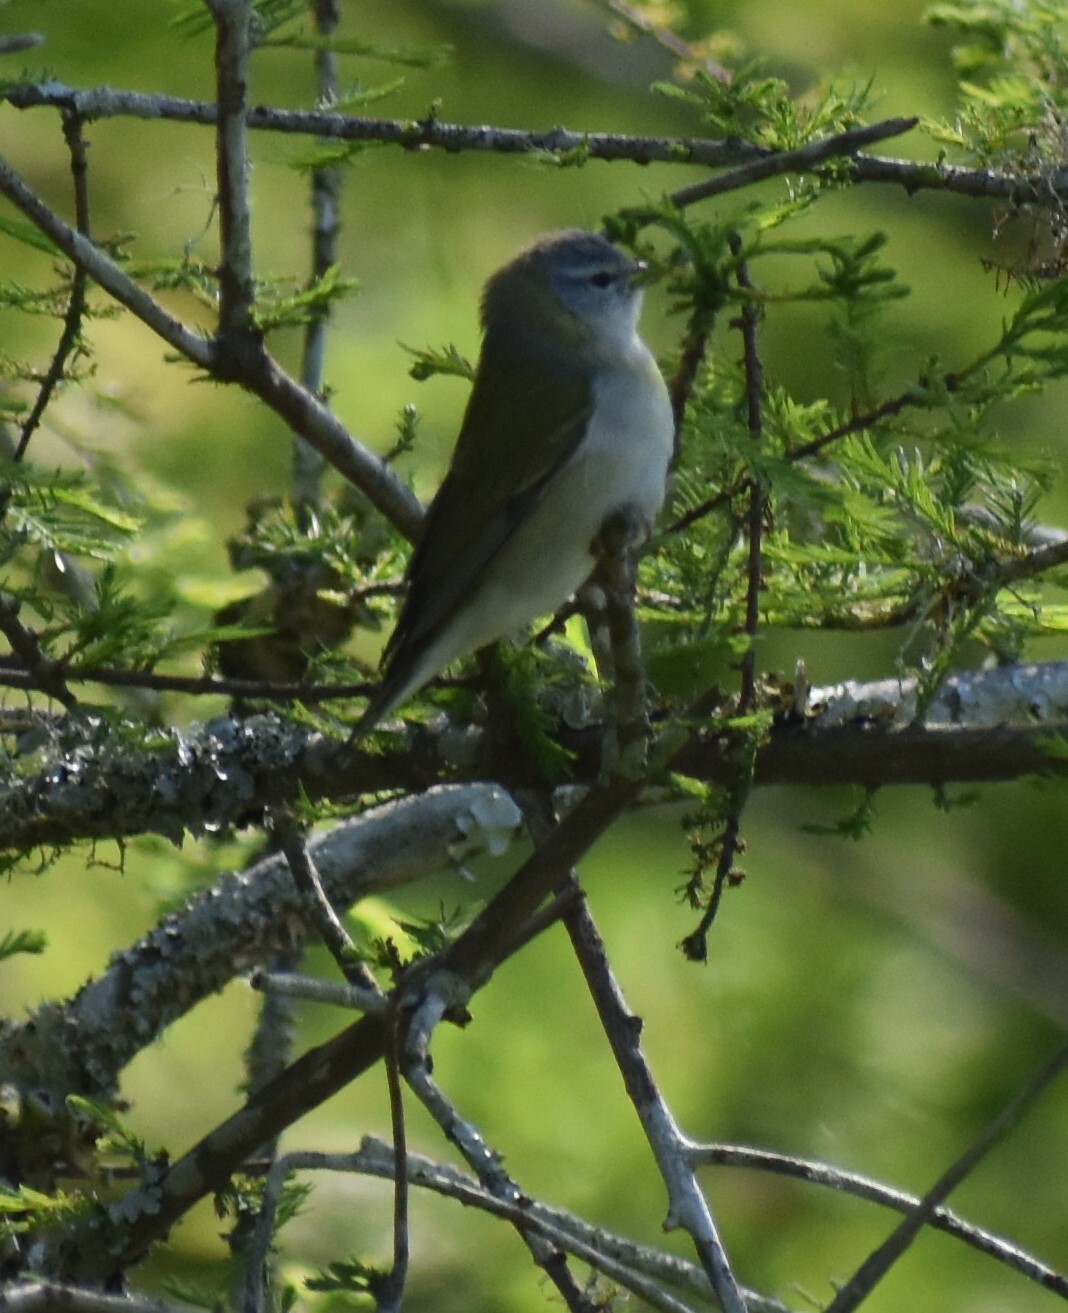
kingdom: Animalia
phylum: Chordata
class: Aves
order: Passeriformes
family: Parulidae
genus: Leiothlypis
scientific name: Leiothlypis peregrina
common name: Tennessee warbler
